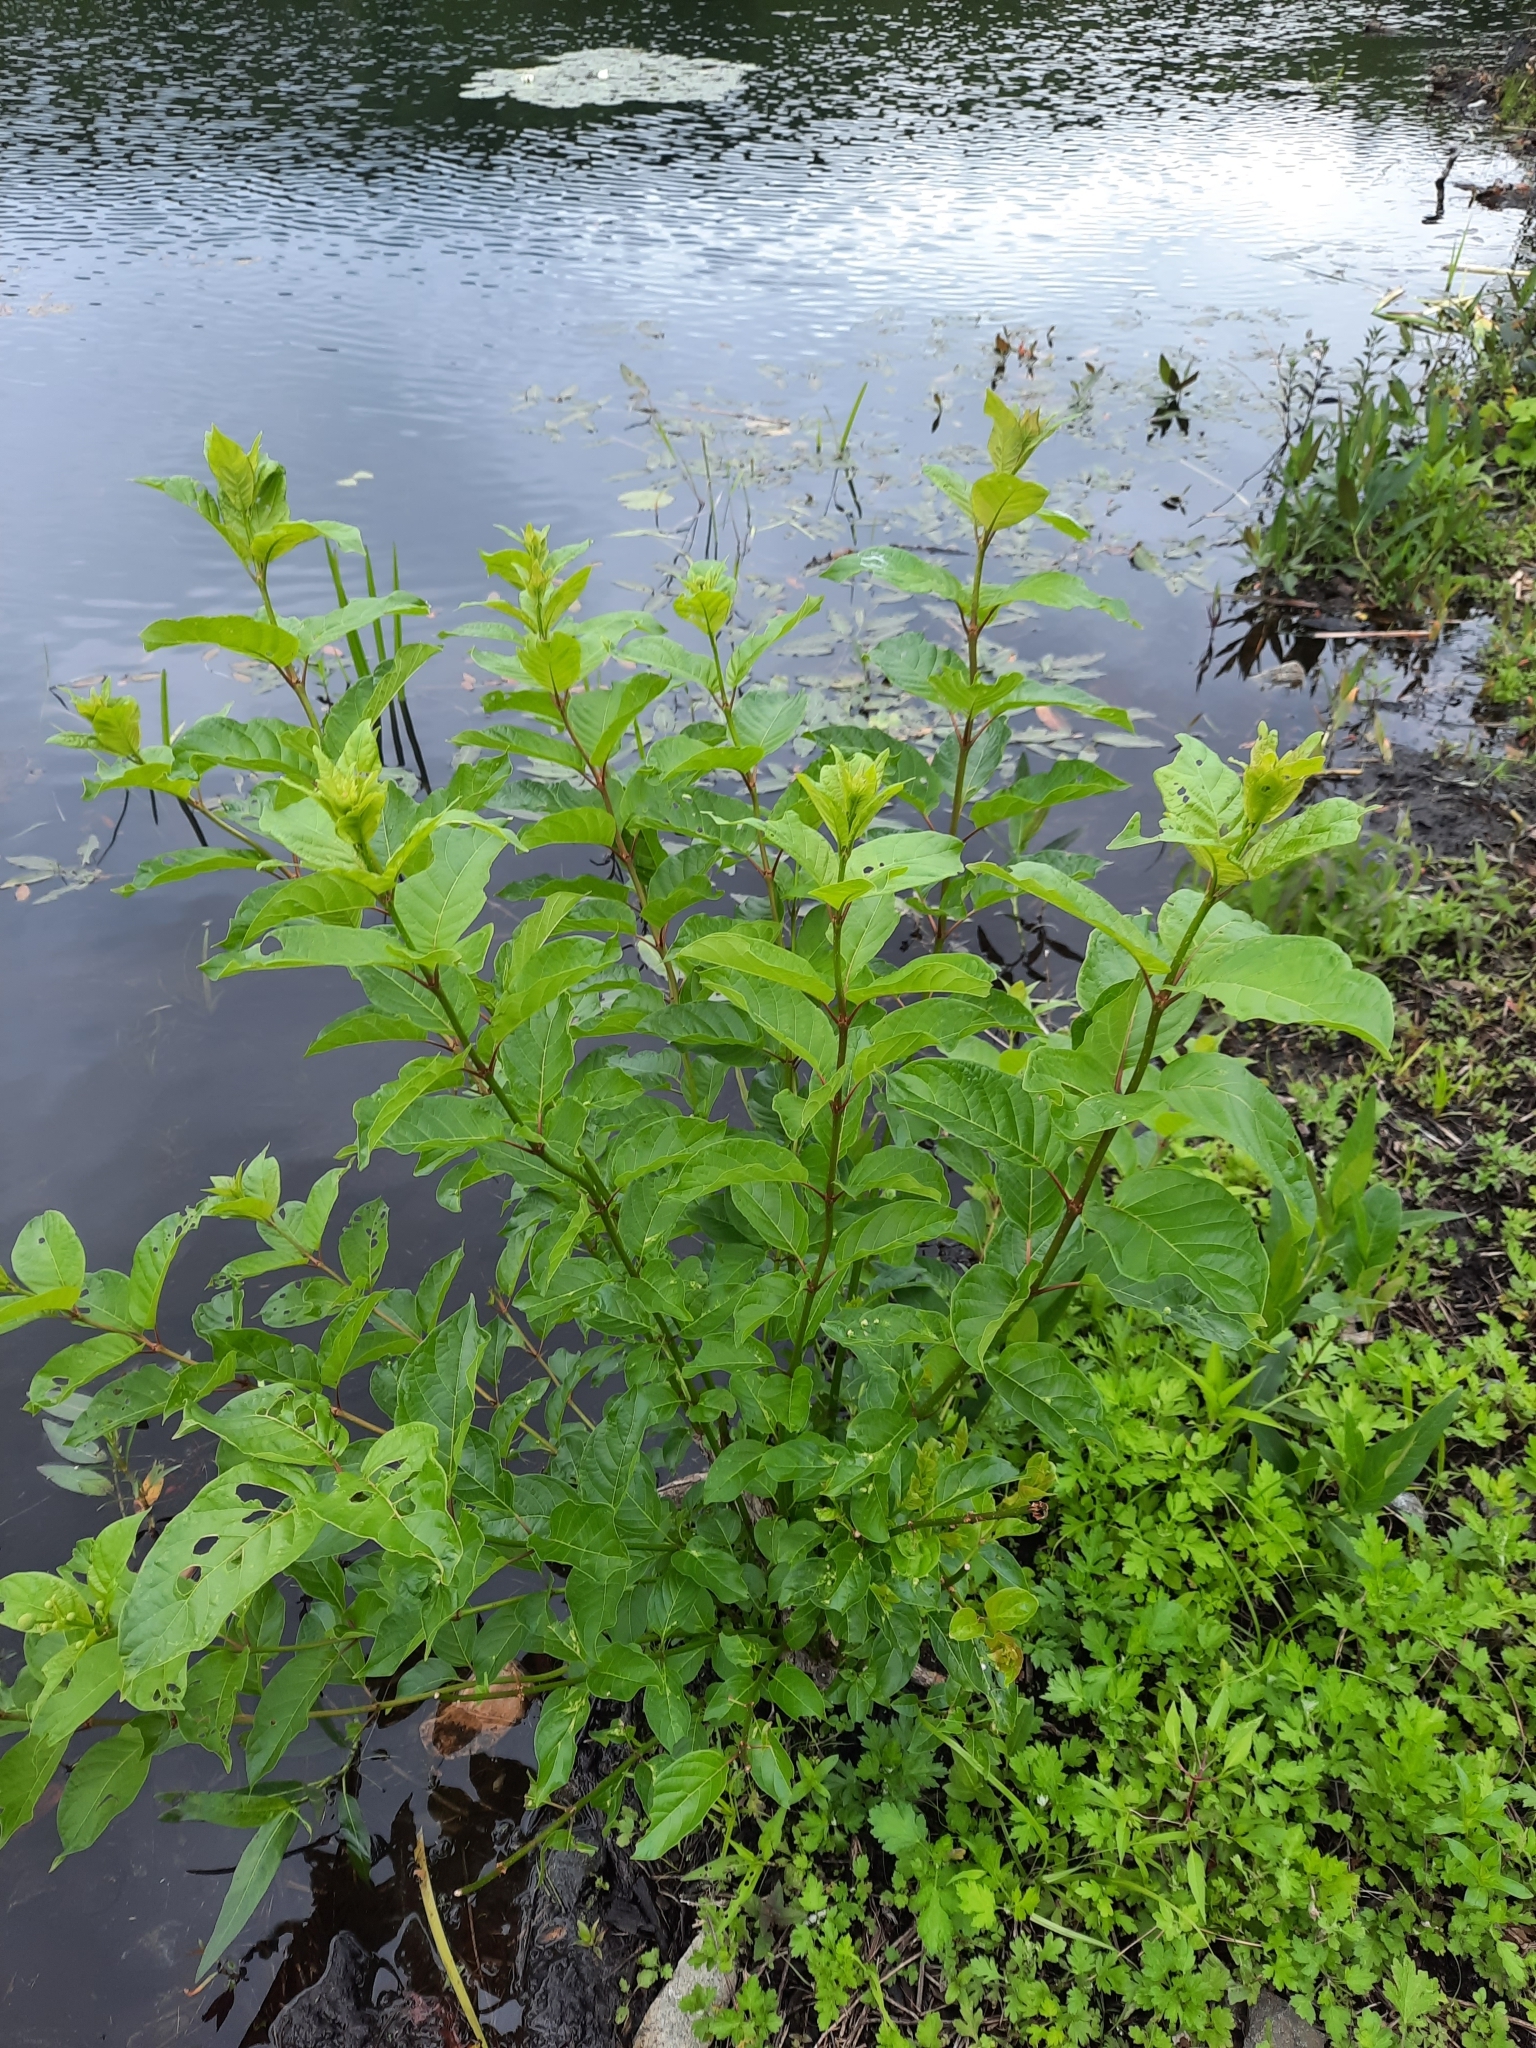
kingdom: Plantae
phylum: Tracheophyta
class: Magnoliopsida
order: Gentianales
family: Rubiaceae
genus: Cephalanthus
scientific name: Cephalanthus occidentalis
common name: Button-willow
